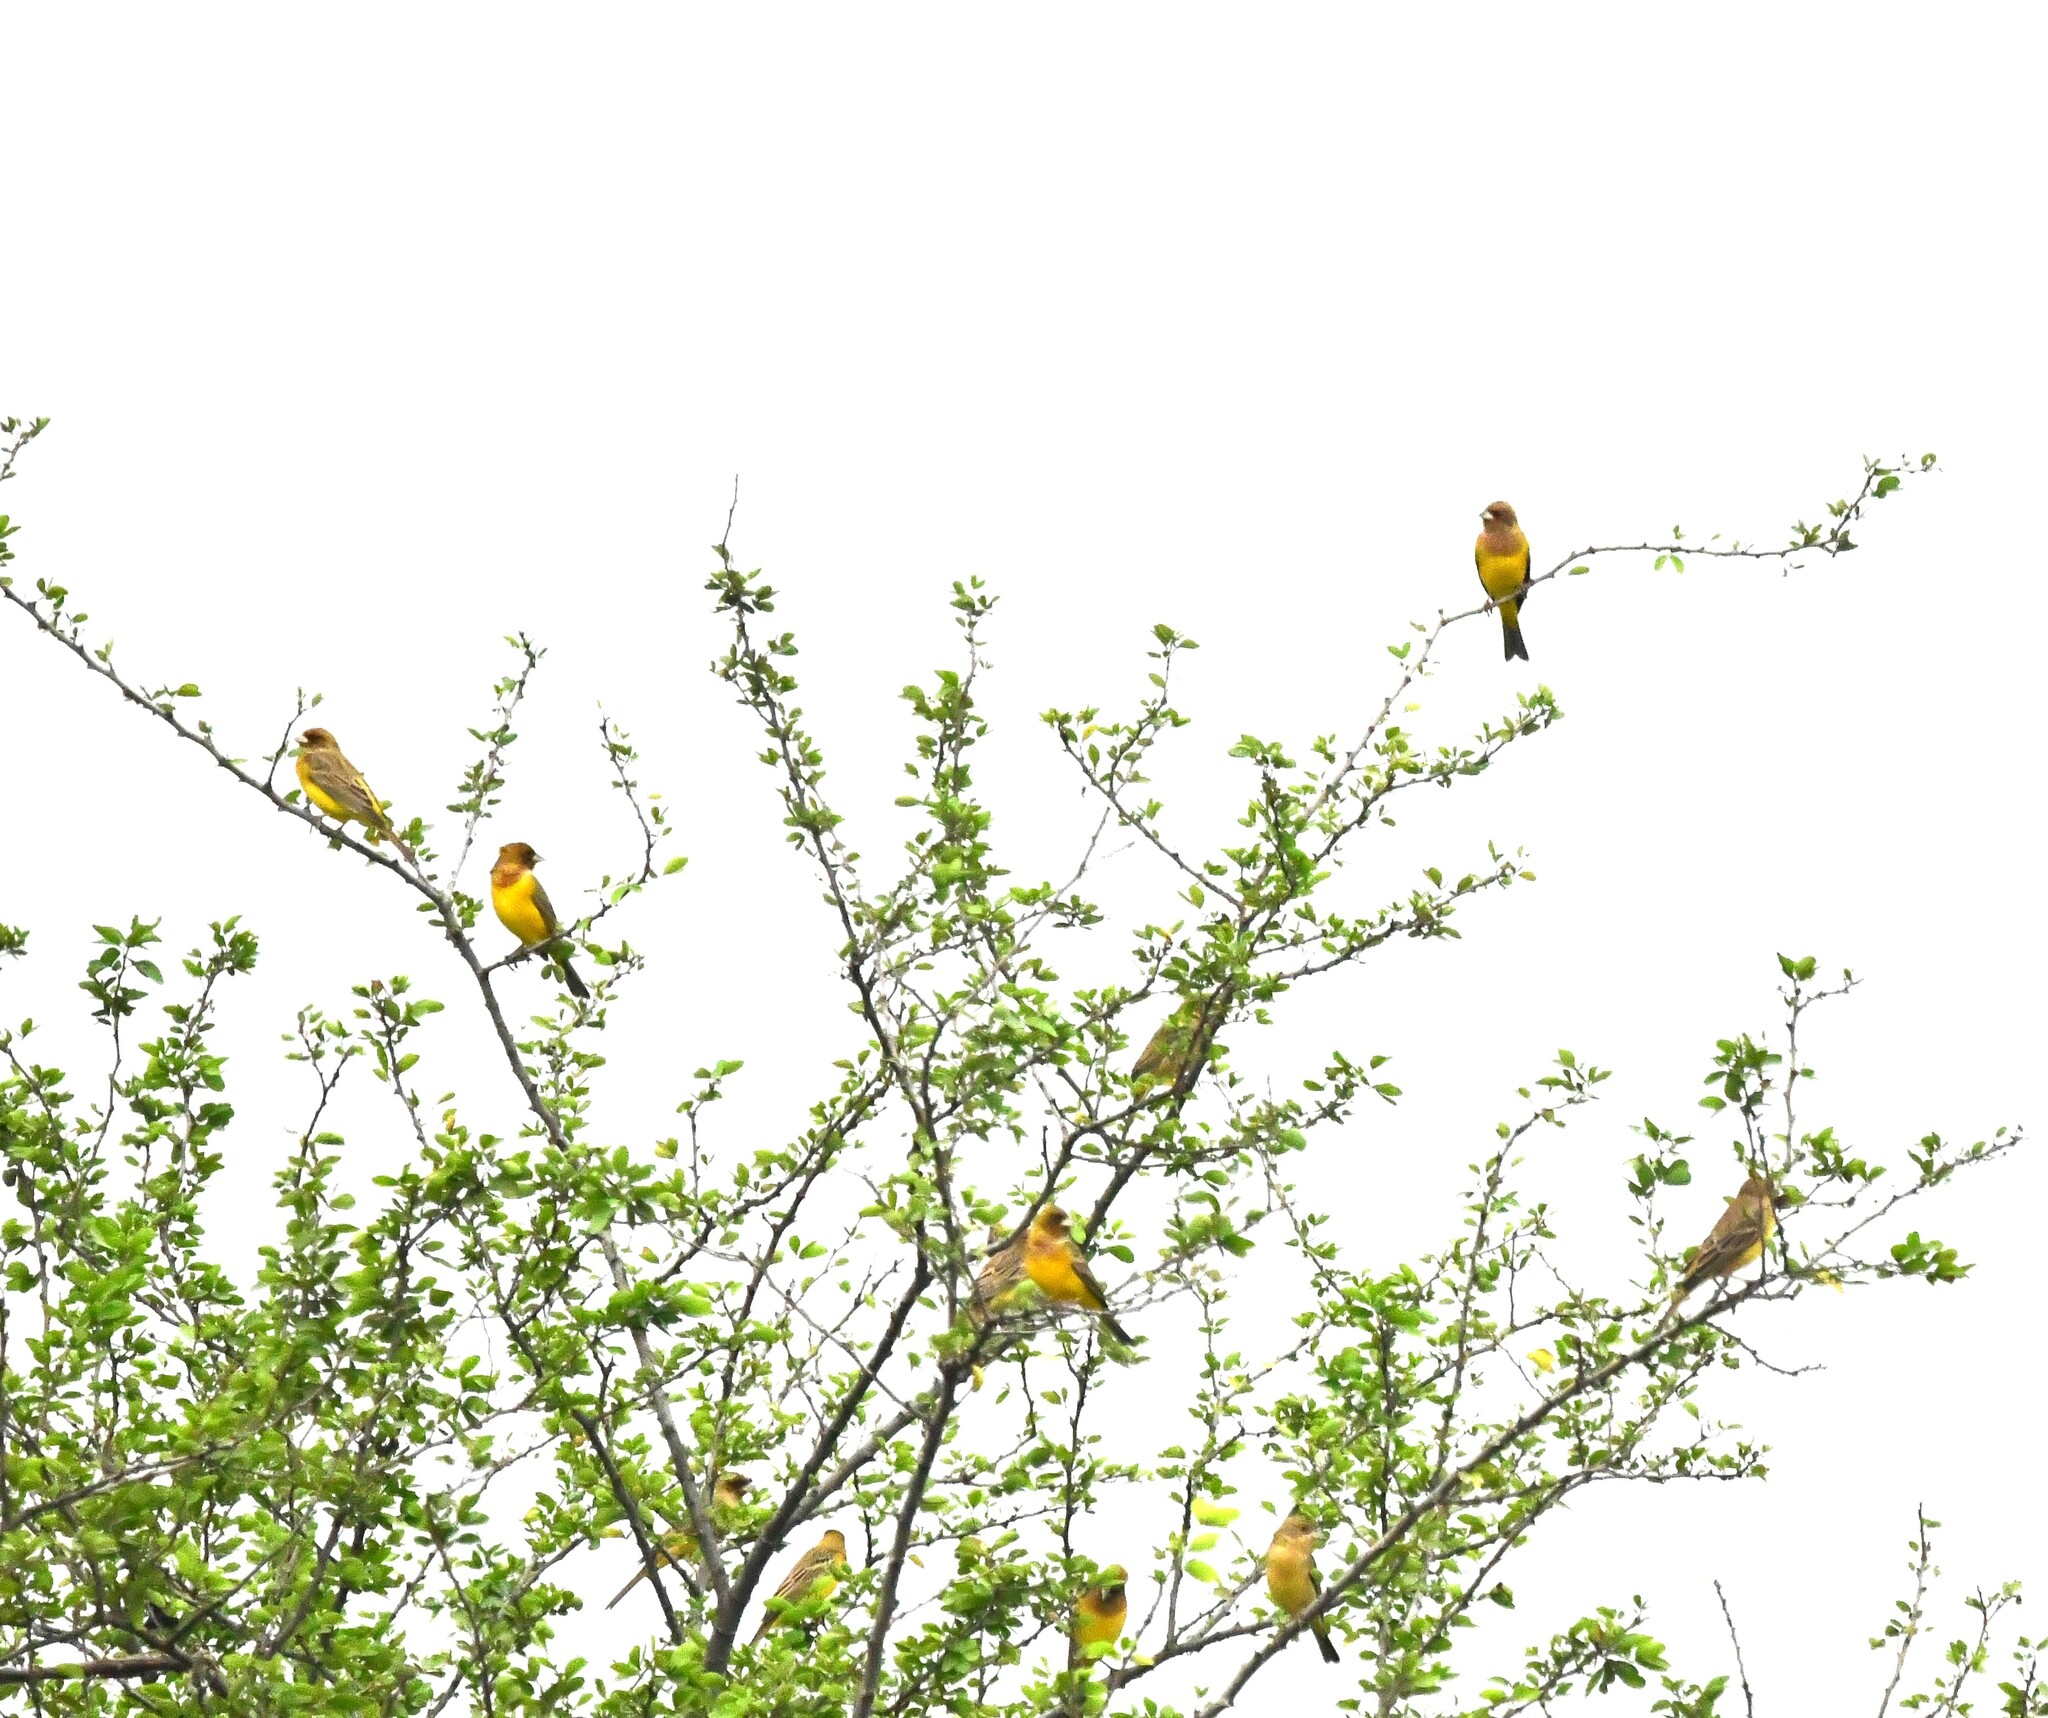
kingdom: Animalia
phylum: Chordata
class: Aves
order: Passeriformes
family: Emberizidae
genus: Emberiza
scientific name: Emberiza bruniceps
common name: Red-headed bunting
